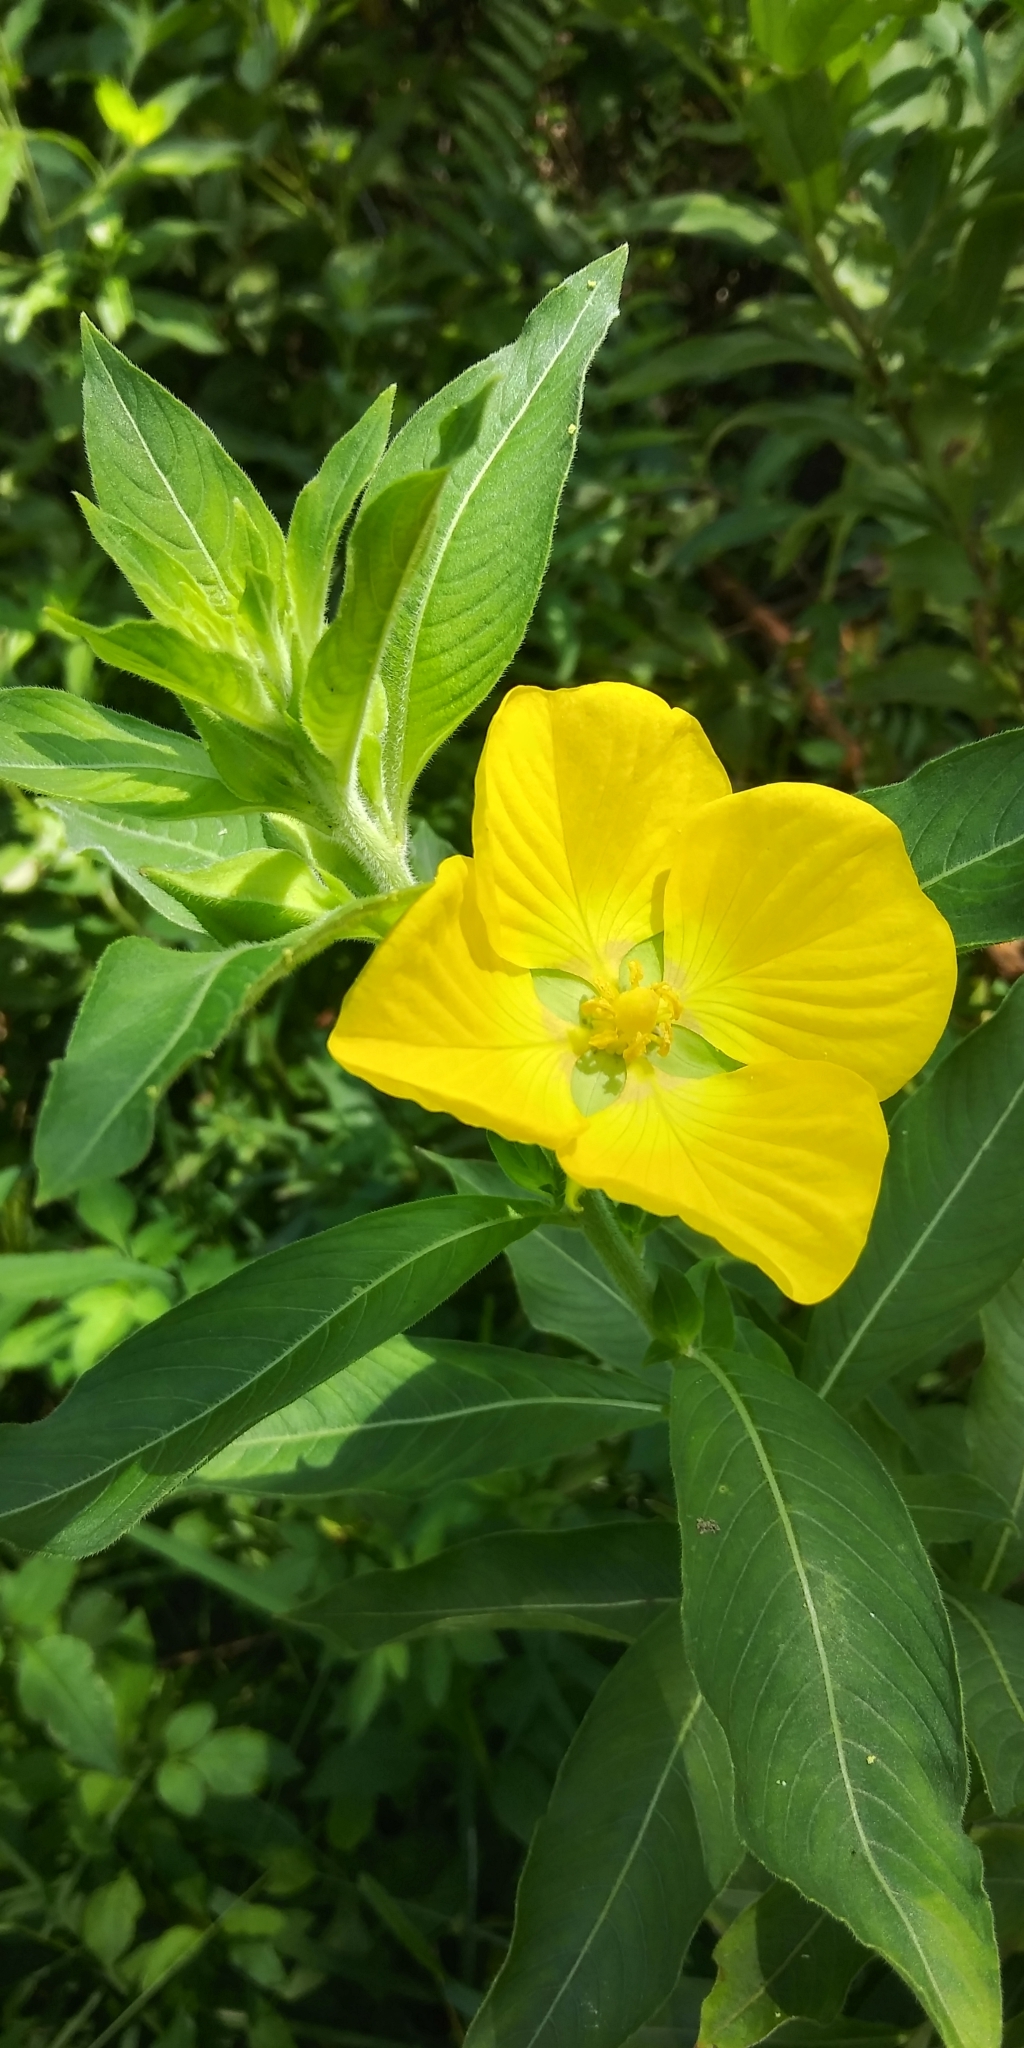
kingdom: Plantae
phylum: Tracheophyta
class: Magnoliopsida
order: Myrtales
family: Onagraceae
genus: Ludwigia
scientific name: Ludwigia peruviana
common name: Peruvian primrose-willow
